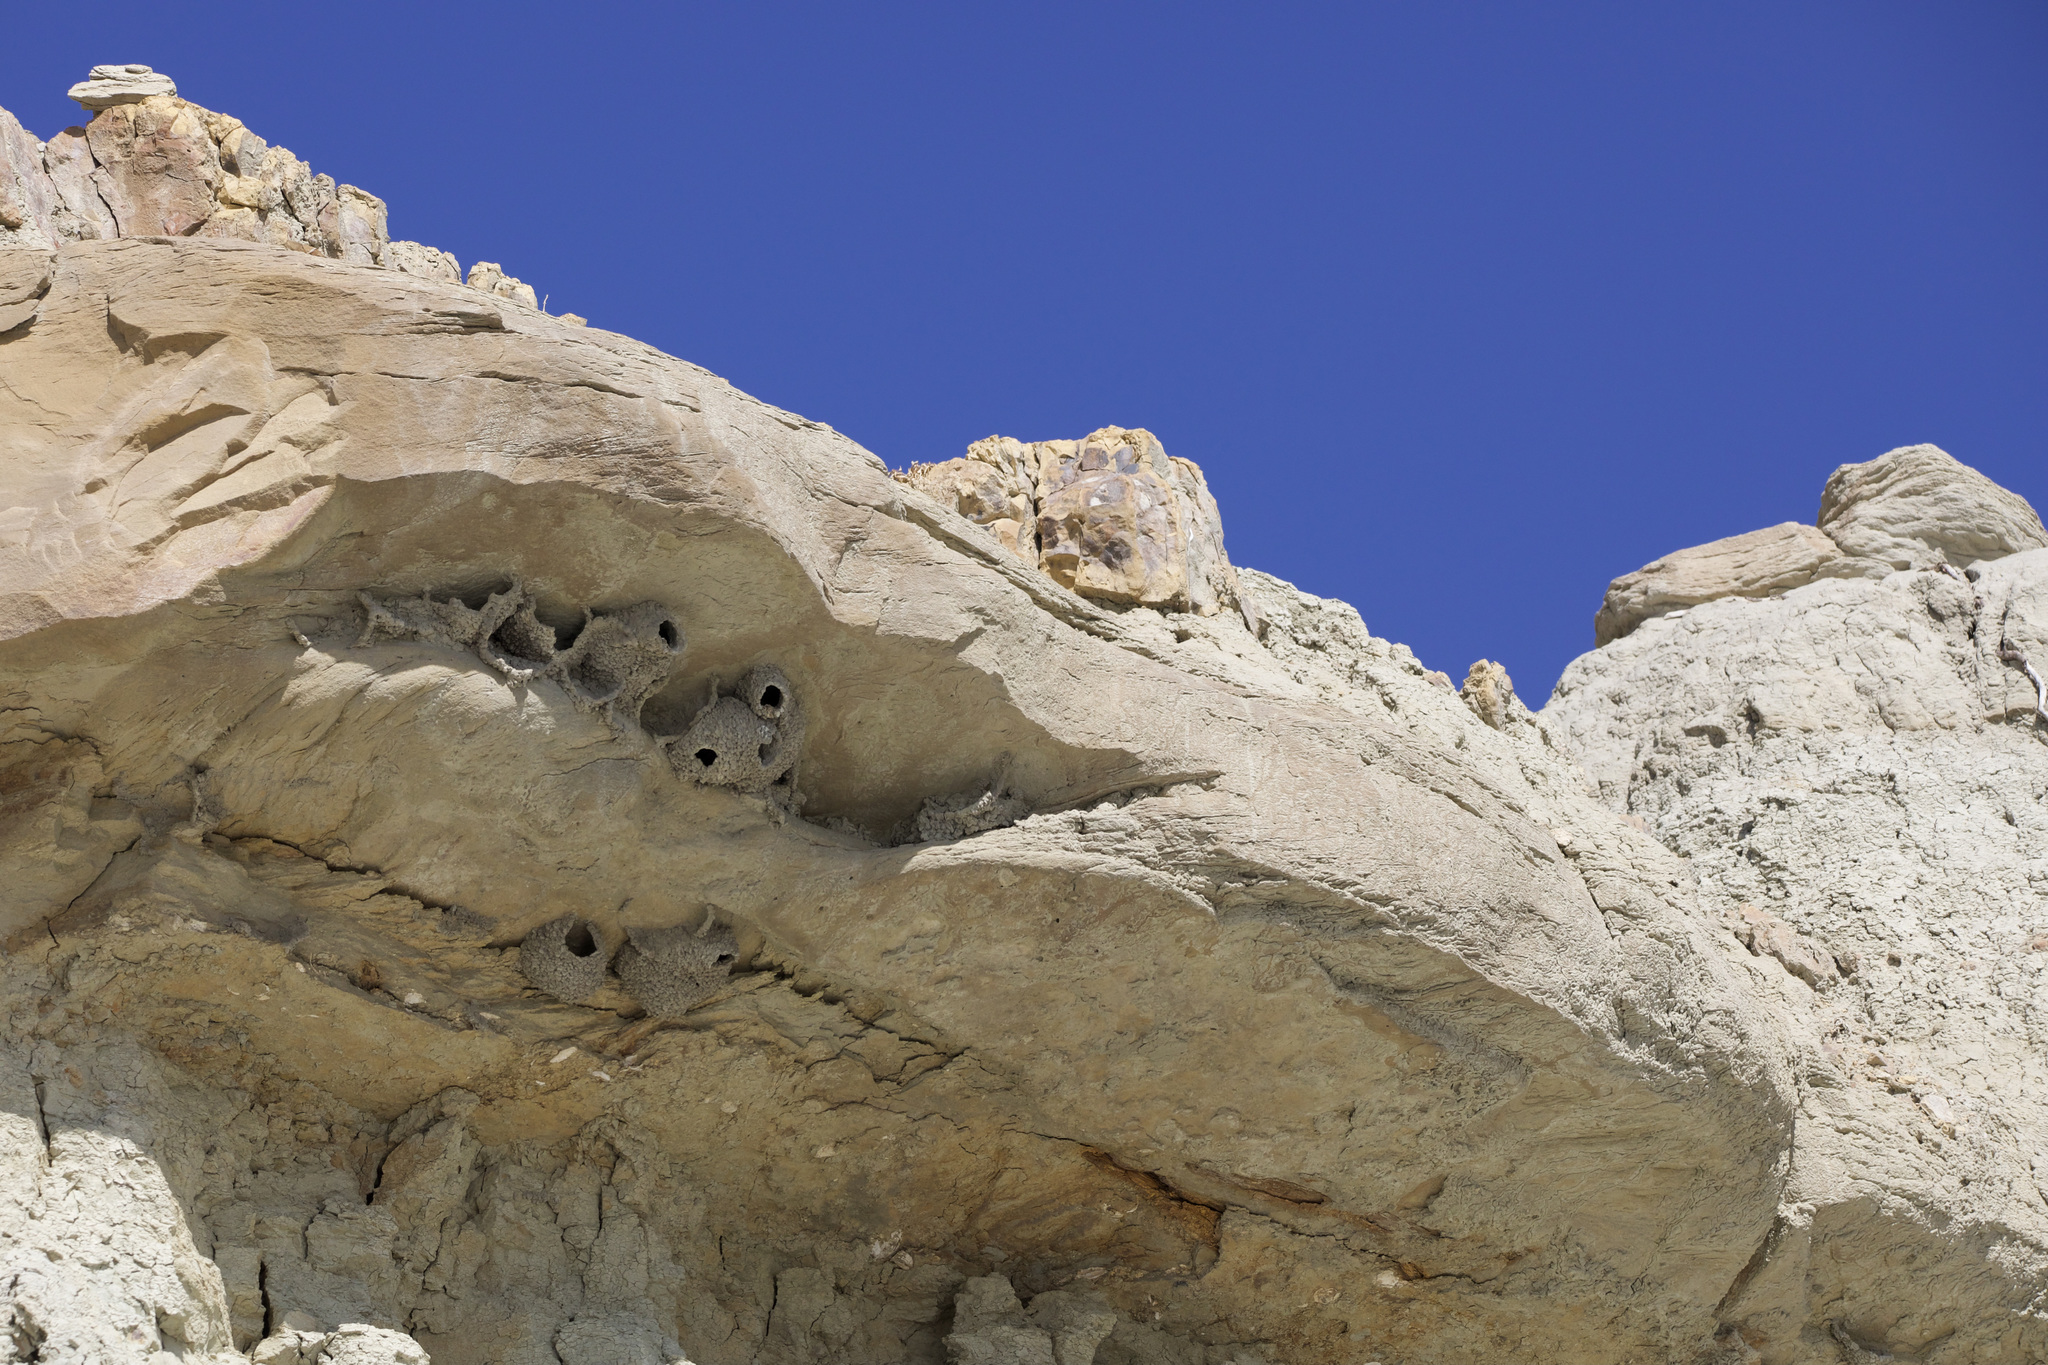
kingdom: Animalia
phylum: Chordata
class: Aves
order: Passeriformes
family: Hirundinidae
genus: Petrochelidon
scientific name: Petrochelidon pyrrhonota
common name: American cliff swallow
